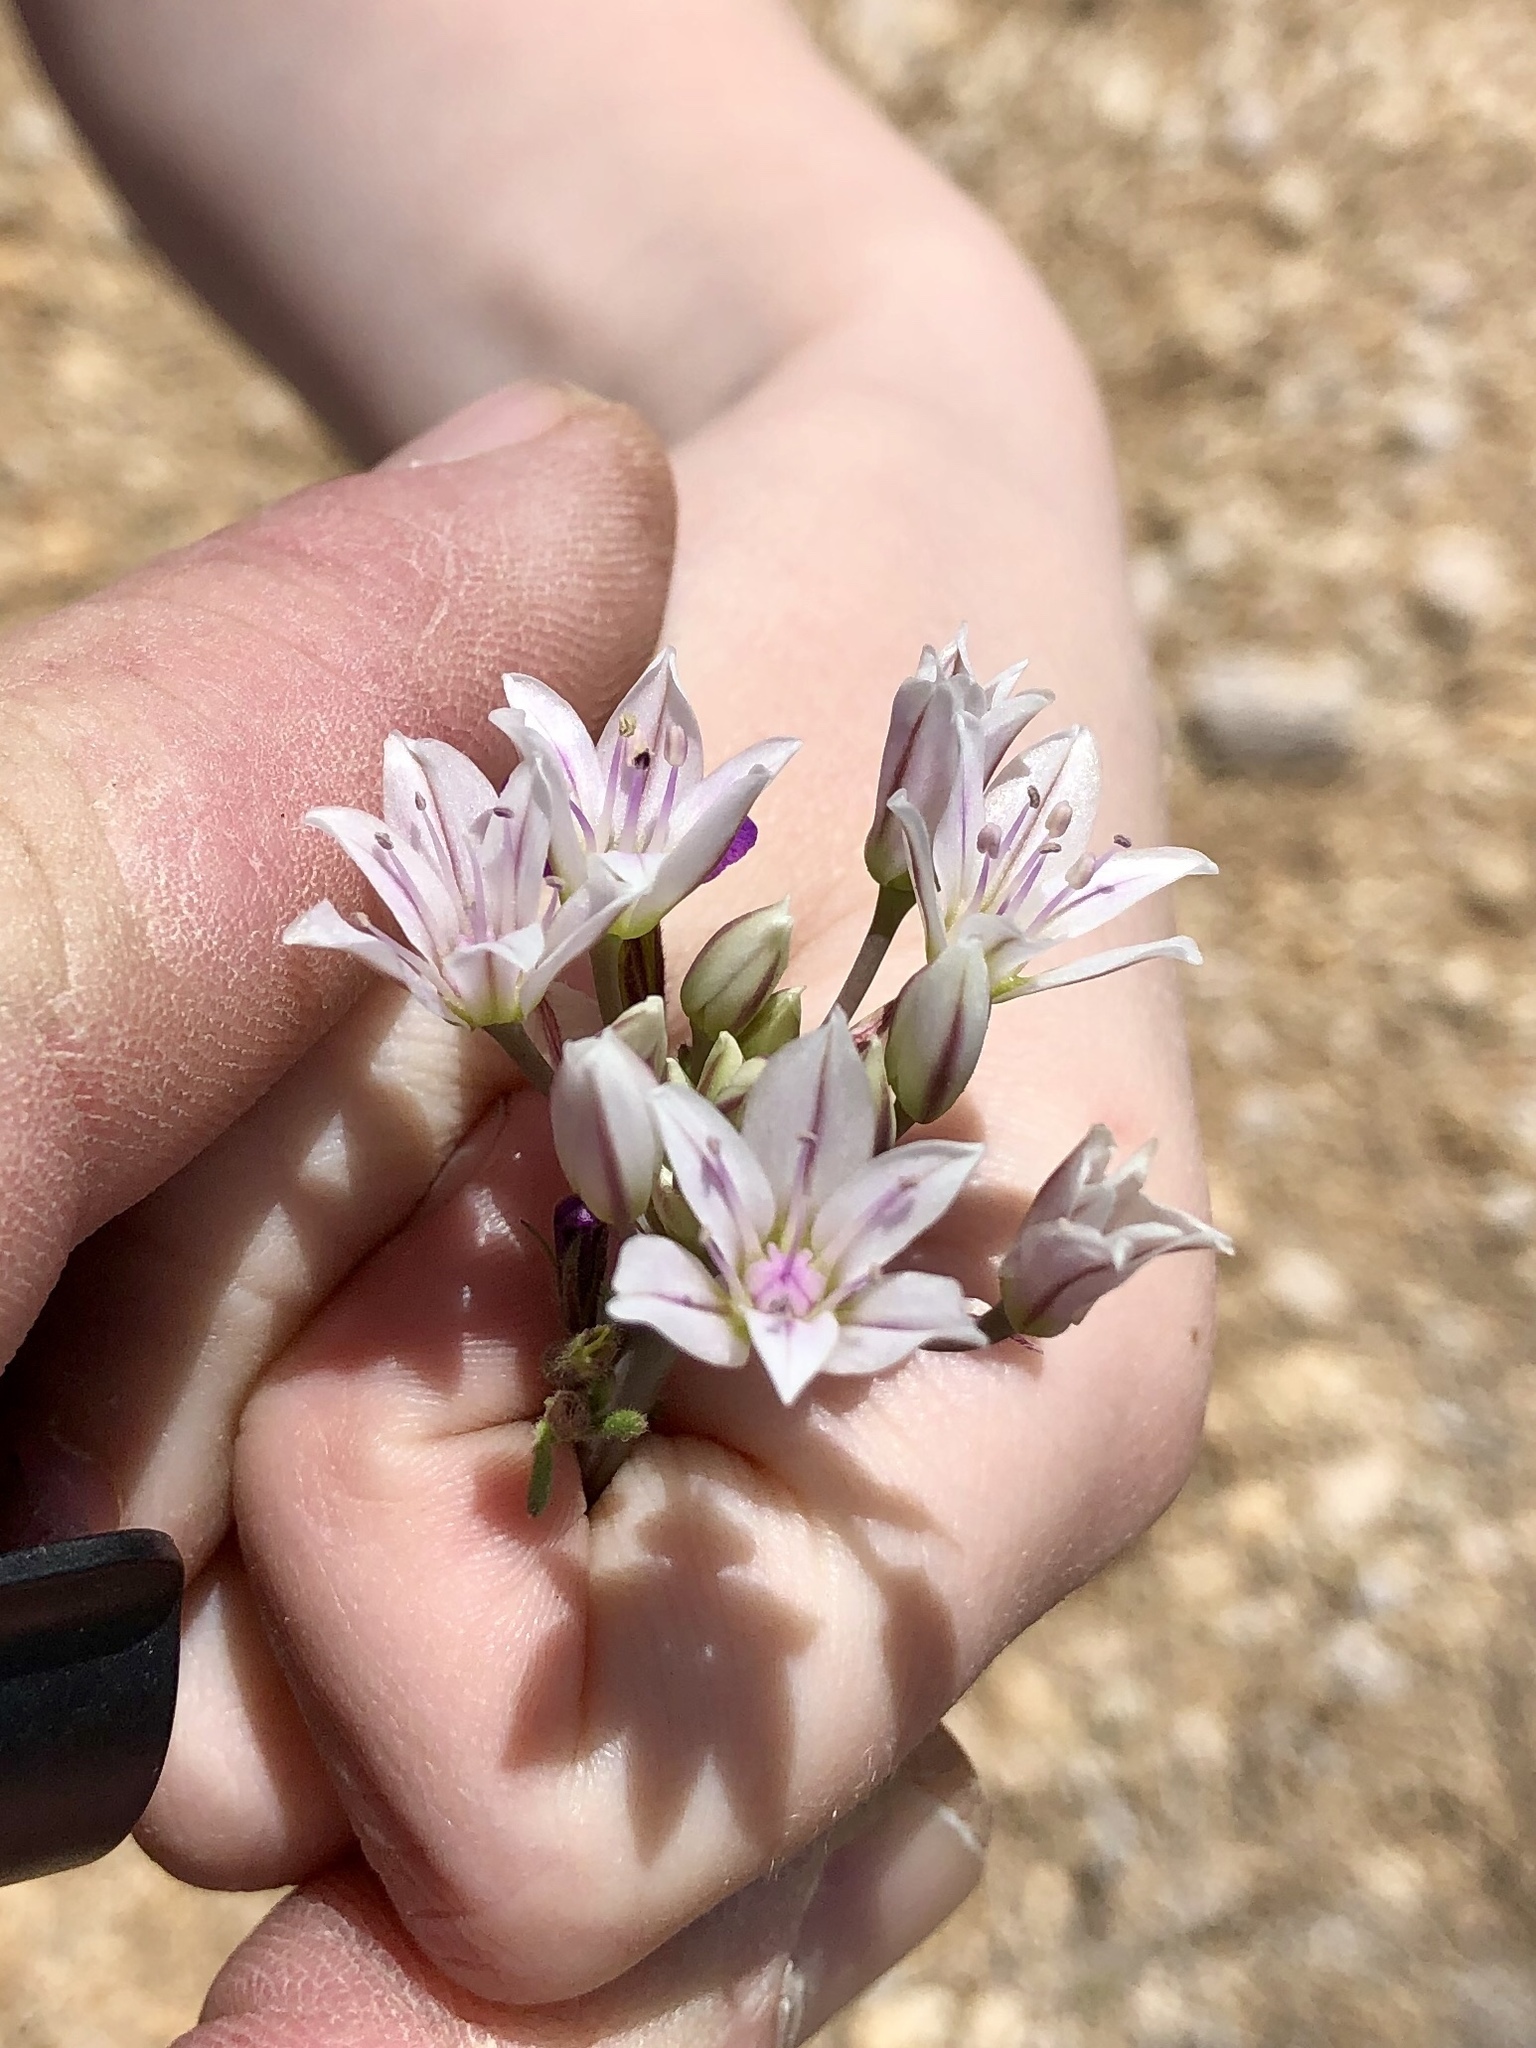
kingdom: Plantae
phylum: Tracheophyta
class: Liliopsida
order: Asparagales
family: Amaryllidaceae
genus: Allium
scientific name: Allium macropetalum
